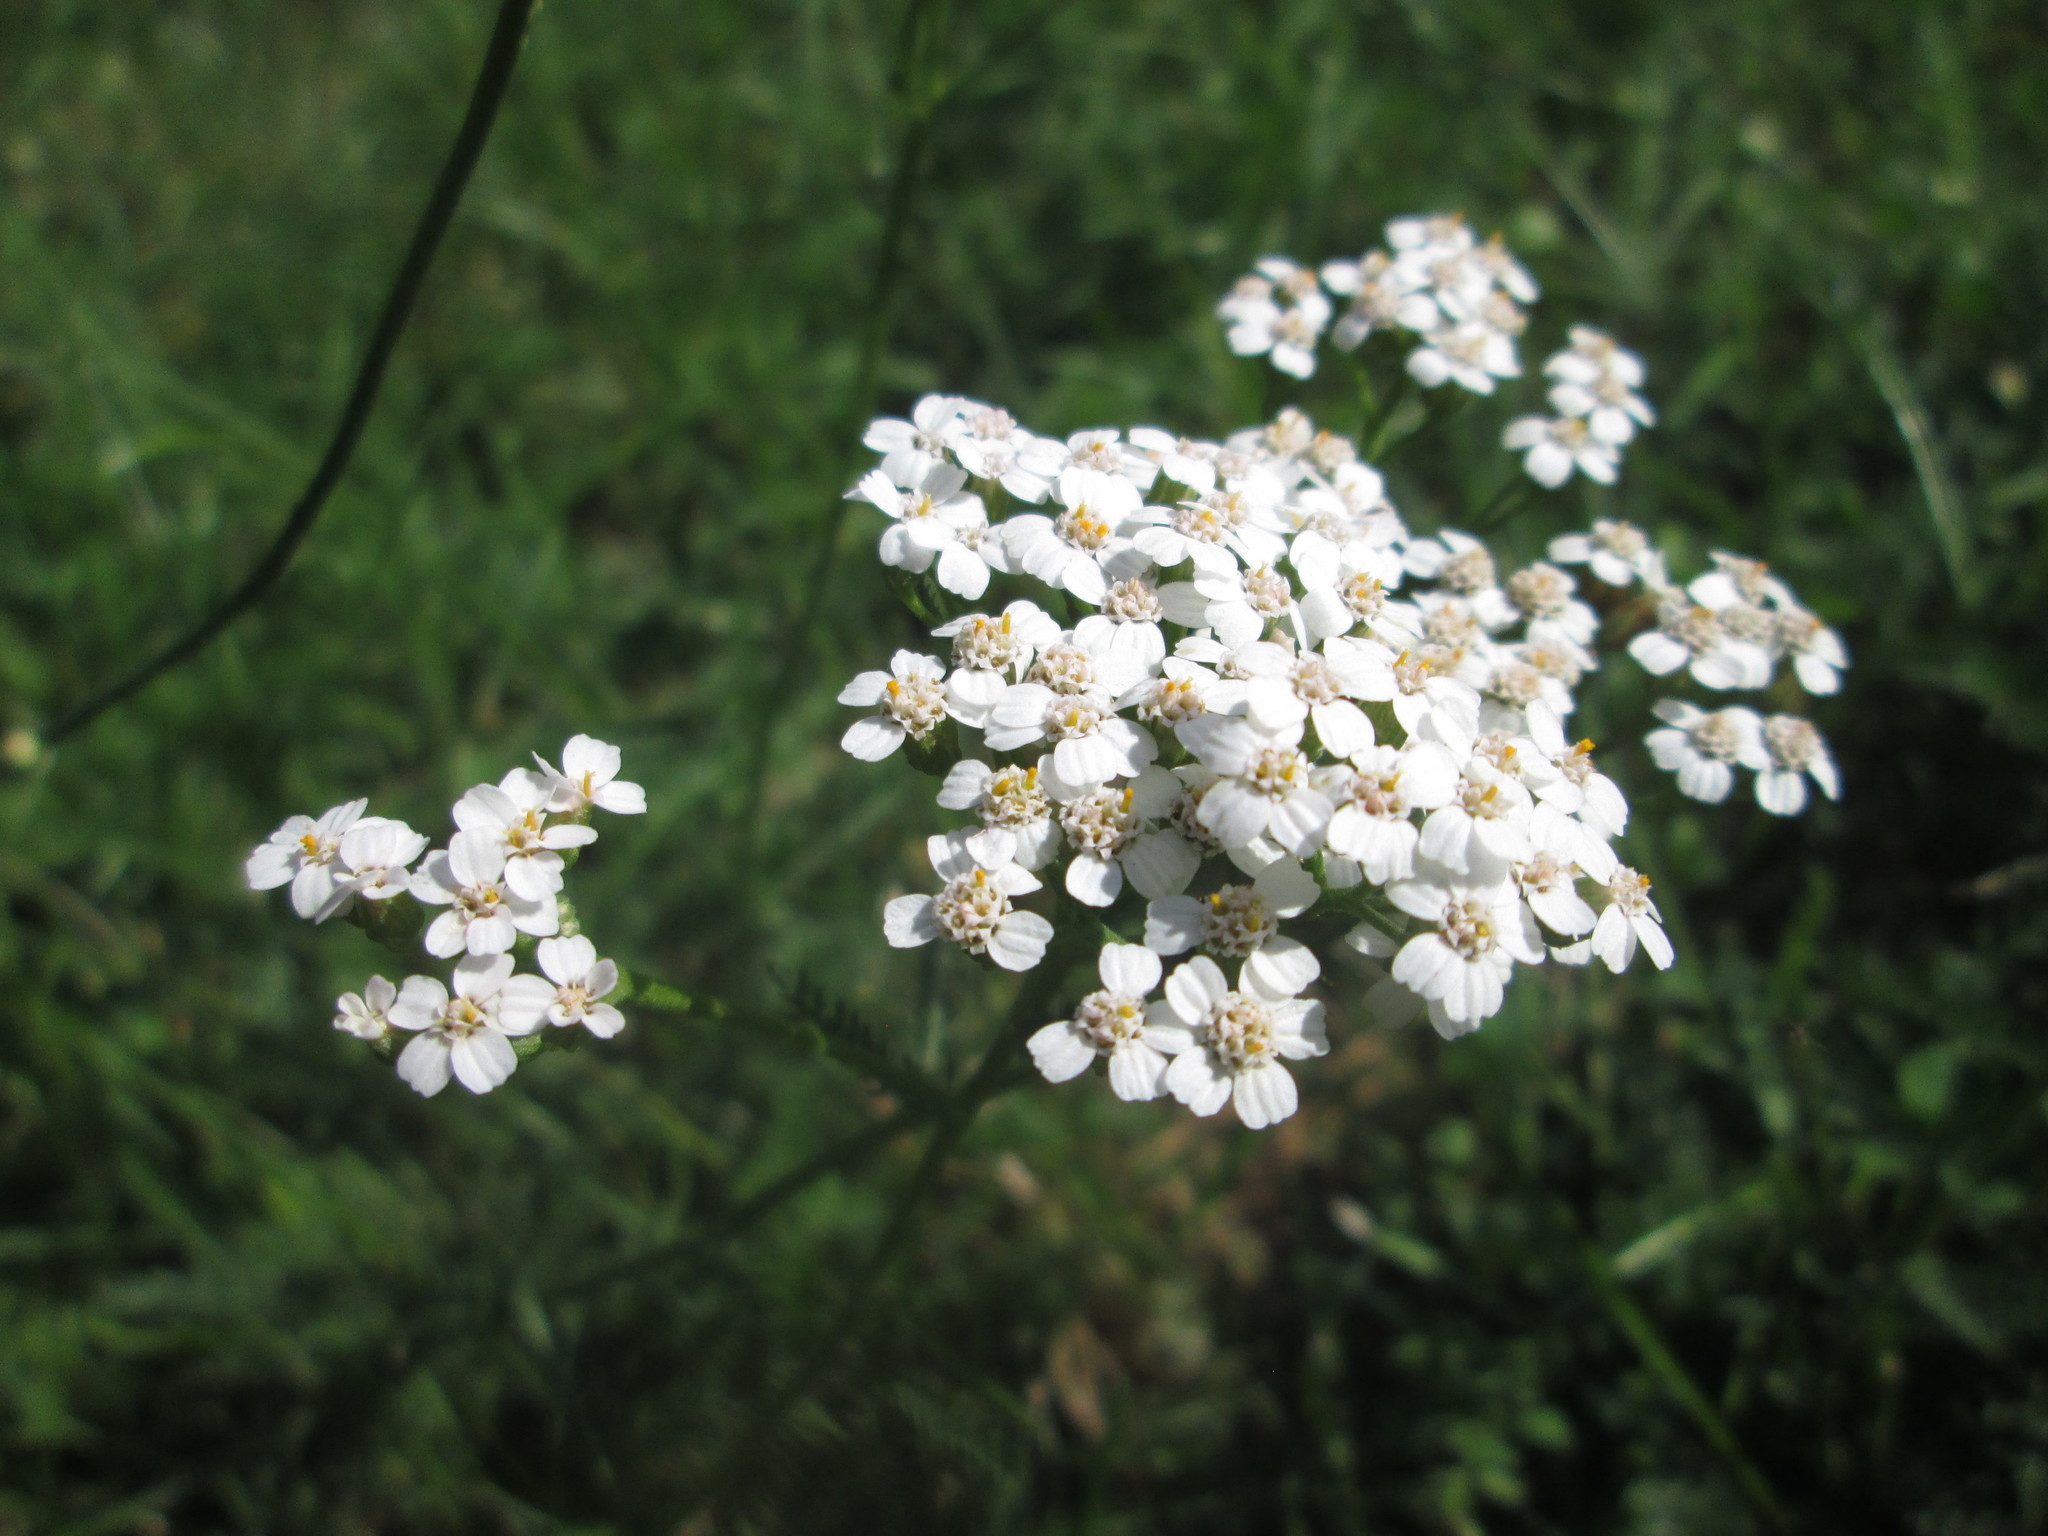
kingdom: Plantae
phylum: Tracheophyta
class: Magnoliopsida
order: Asterales
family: Asteraceae
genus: Achillea
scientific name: Achillea millefolium
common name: Yarrow
